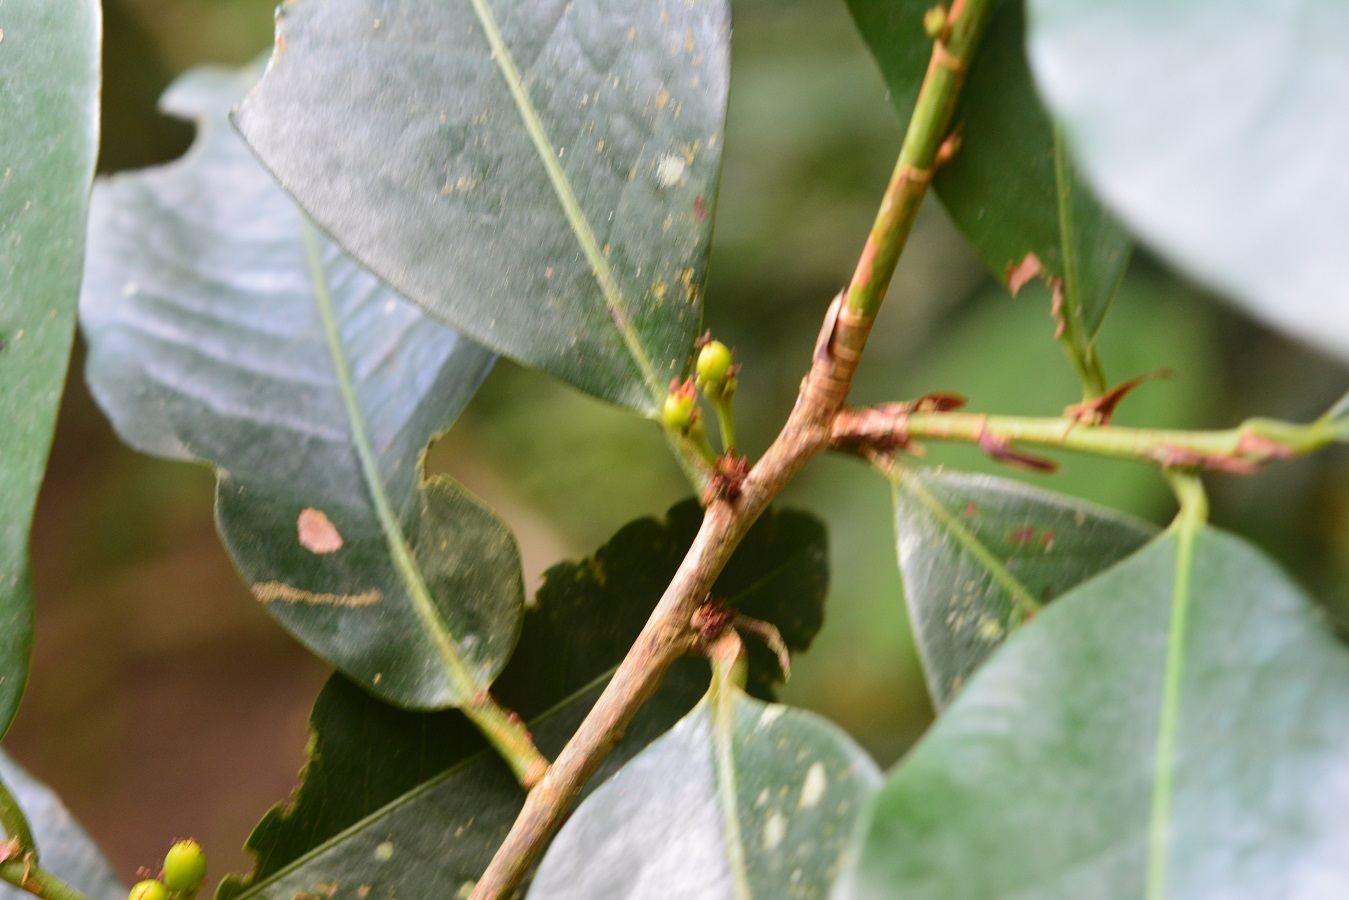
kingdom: Plantae
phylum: Tracheophyta
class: Magnoliopsida
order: Malpighiales
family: Erythroxylaceae
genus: Erythroxylum
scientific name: Erythroxylum macrophyllum
